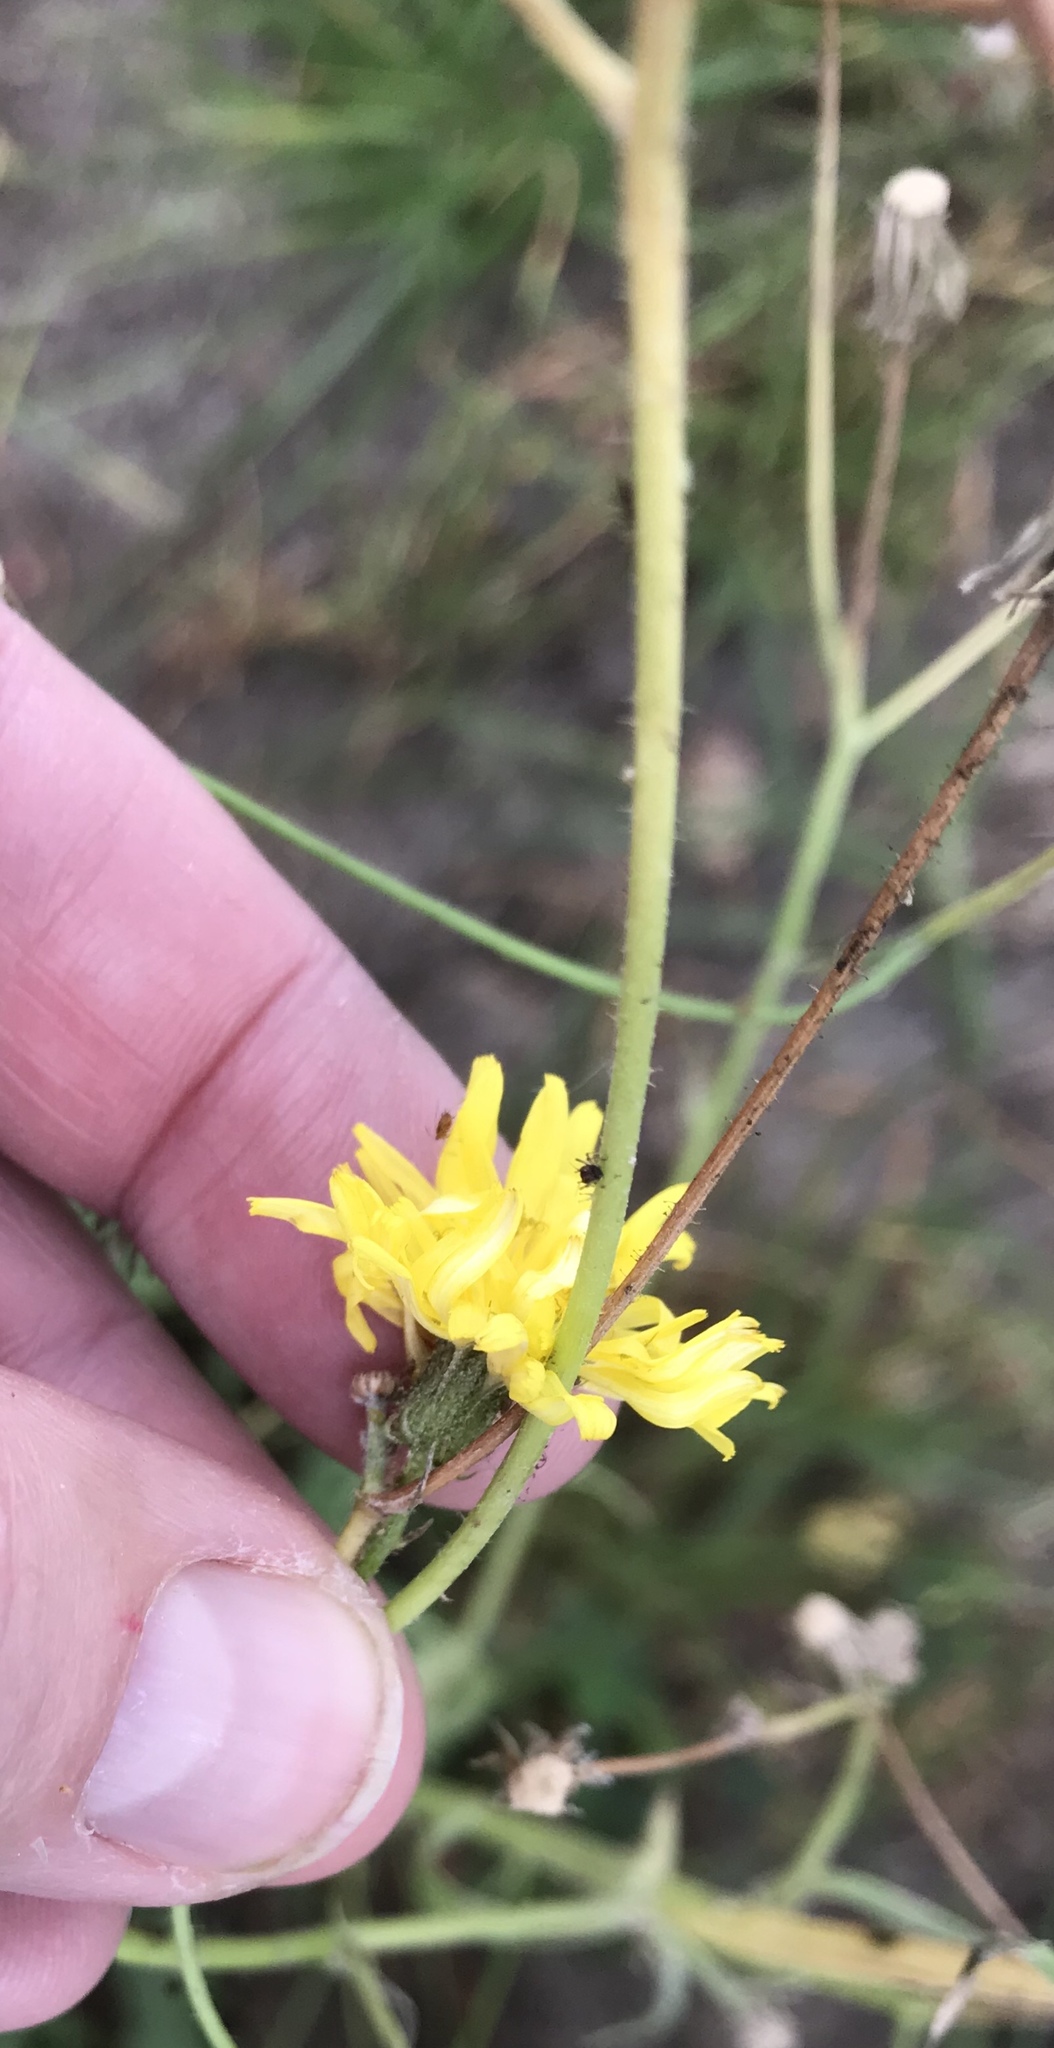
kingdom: Plantae
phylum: Tracheophyta
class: Magnoliopsida
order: Asterales
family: Asteraceae
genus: Hypochaeris
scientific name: Hypochaeris radicata
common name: Flatweed
